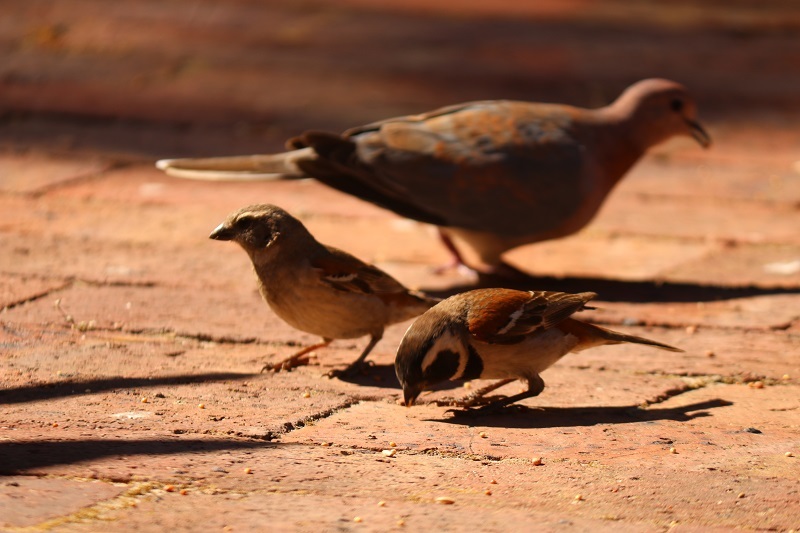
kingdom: Animalia
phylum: Chordata
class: Aves
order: Passeriformes
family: Passeridae
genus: Passer
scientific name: Passer melanurus
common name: Cape sparrow
